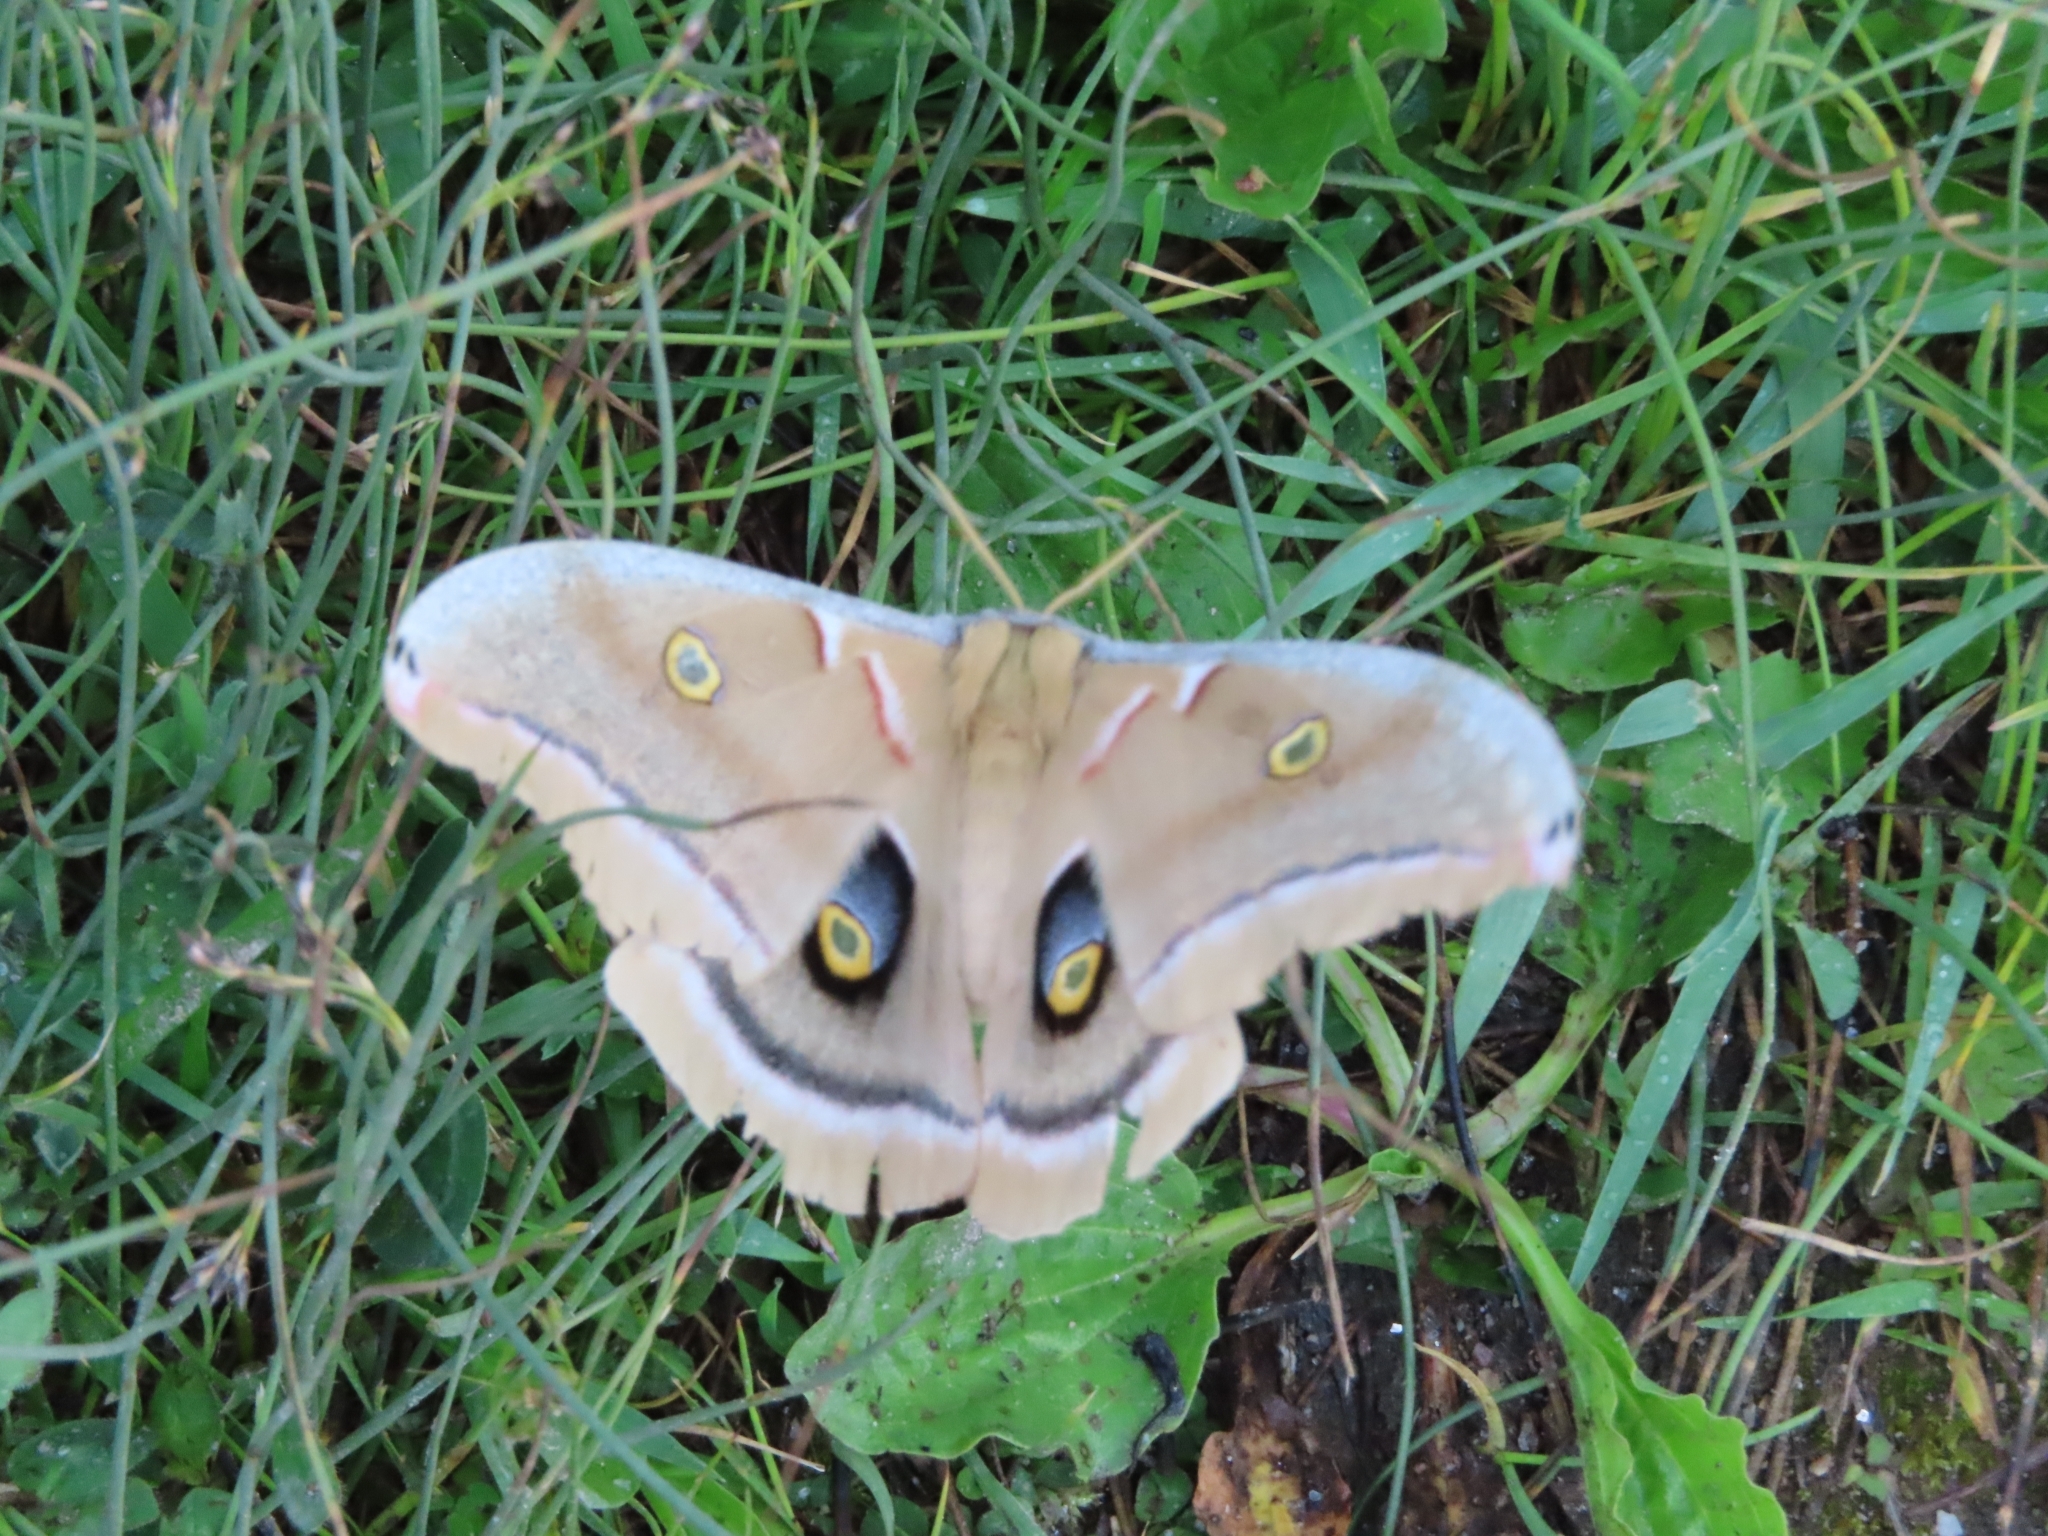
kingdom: Animalia
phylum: Arthropoda
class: Insecta
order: Lepidoptera
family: Saturniidae
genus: Antheraea
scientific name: Antheraea polyphemus
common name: Polyphemus moth
